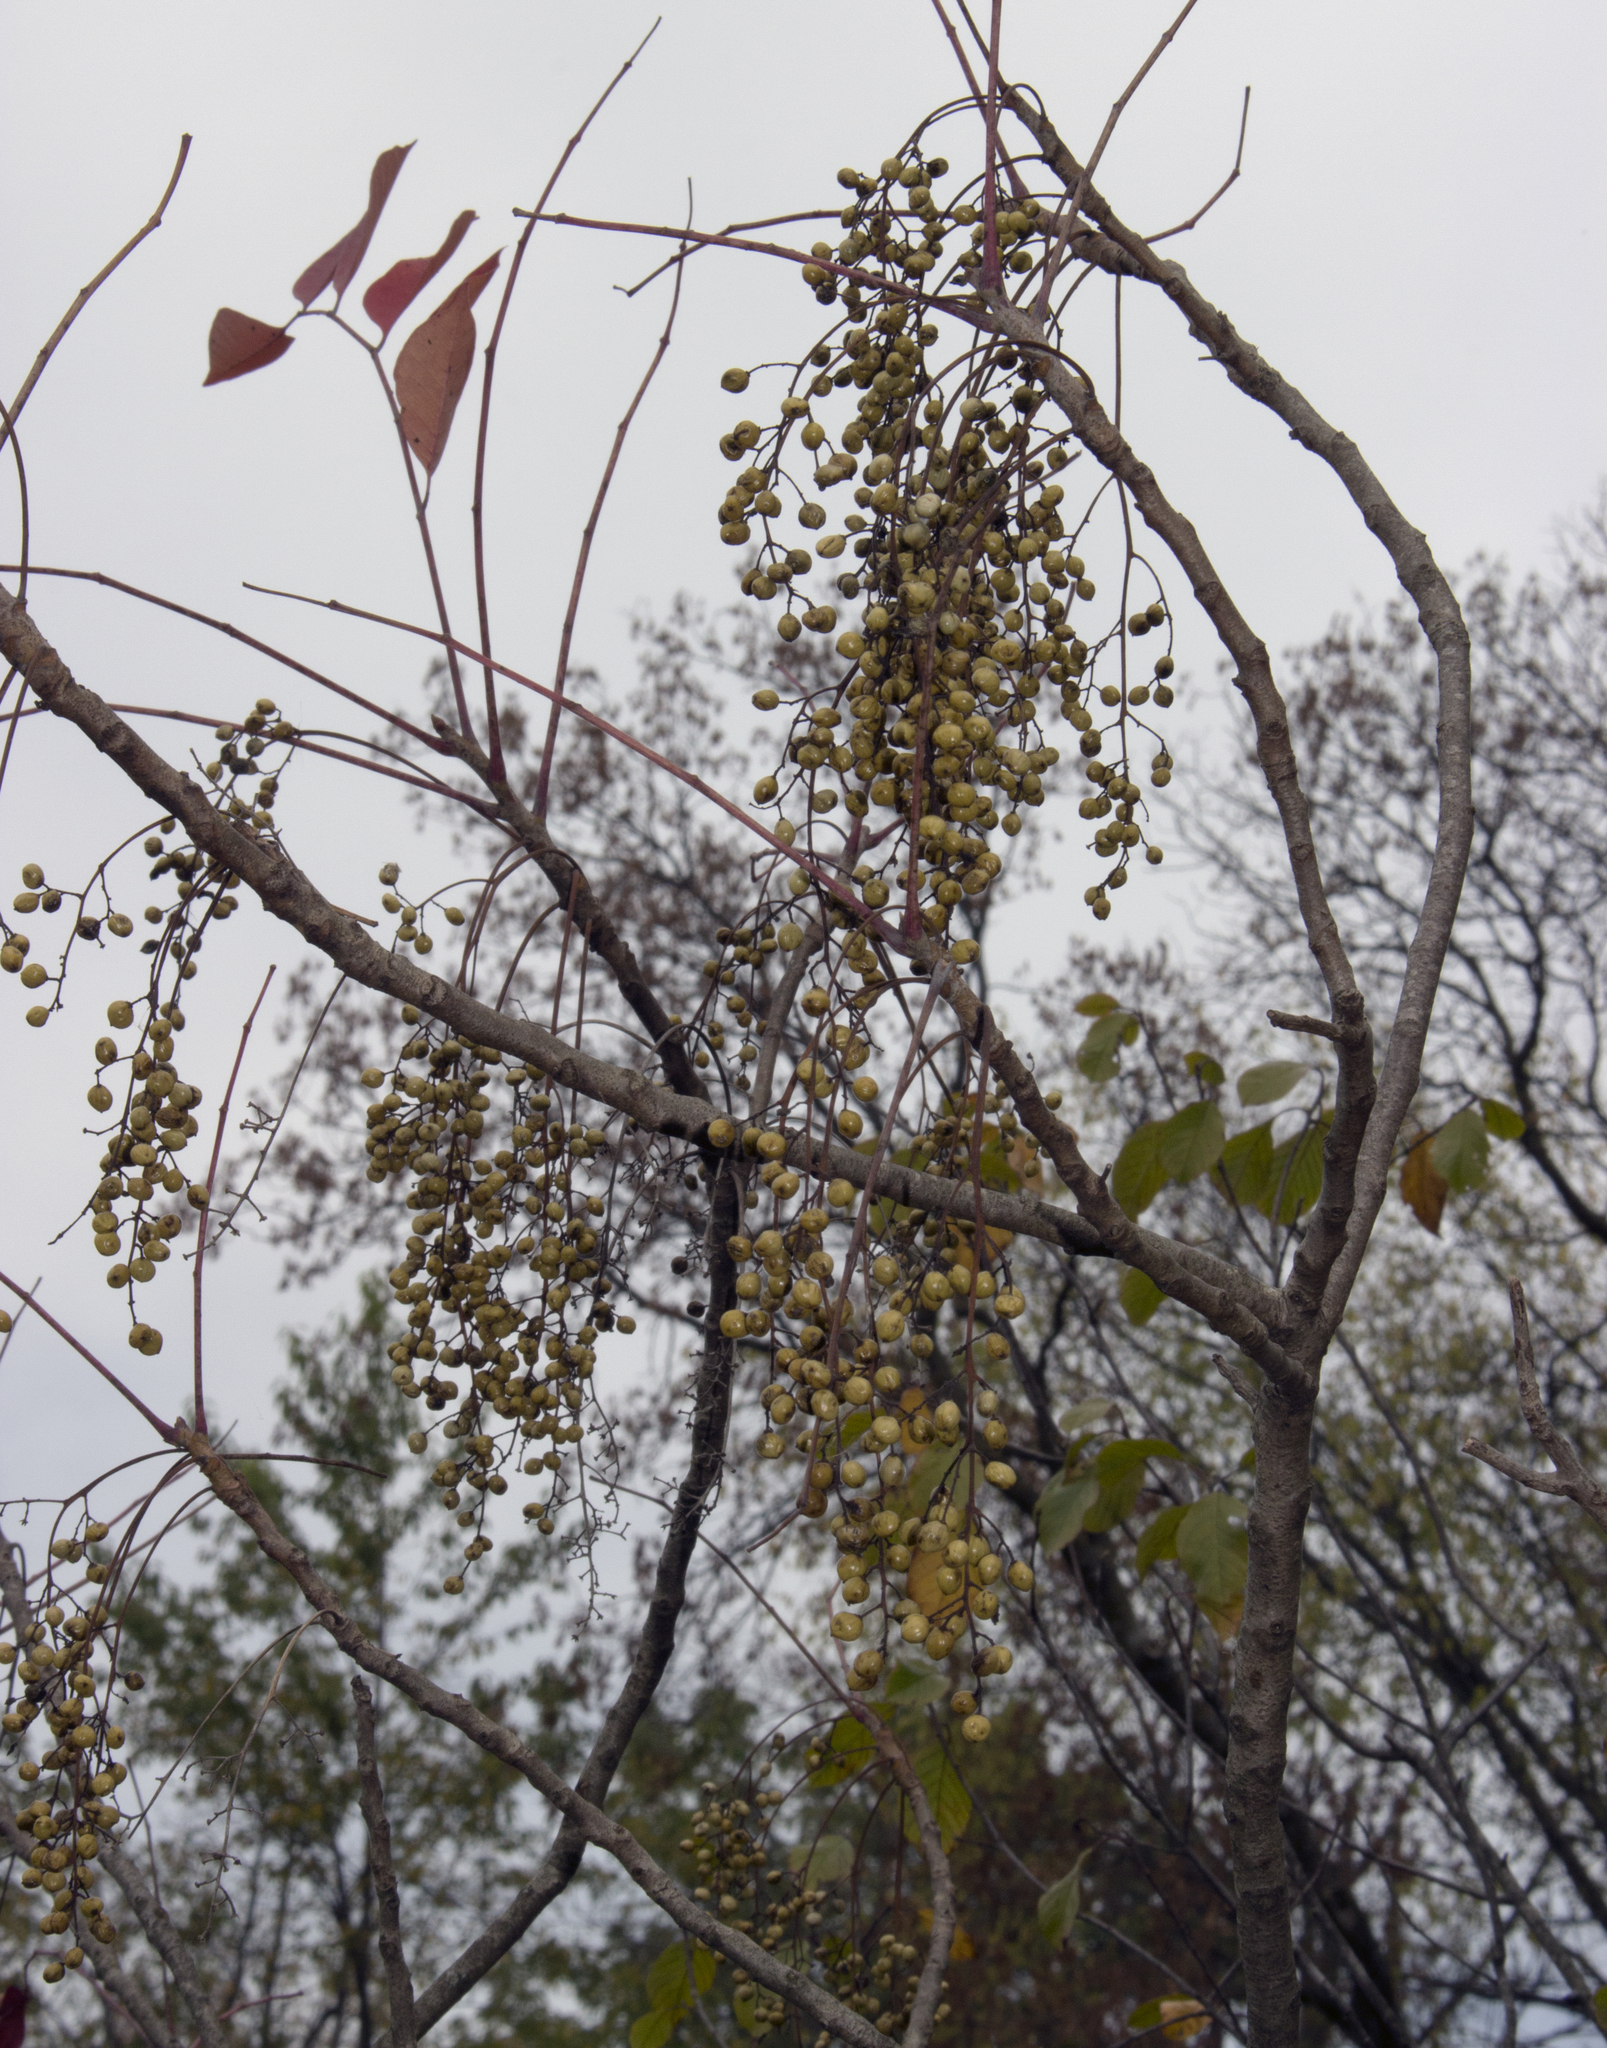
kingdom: Plantae
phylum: Tracheophyta
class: Magnoliopsida
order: Sapindales
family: Anacardiaceae
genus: Toxicodendron
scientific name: Toxicodendron vernix
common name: Poison sumac
